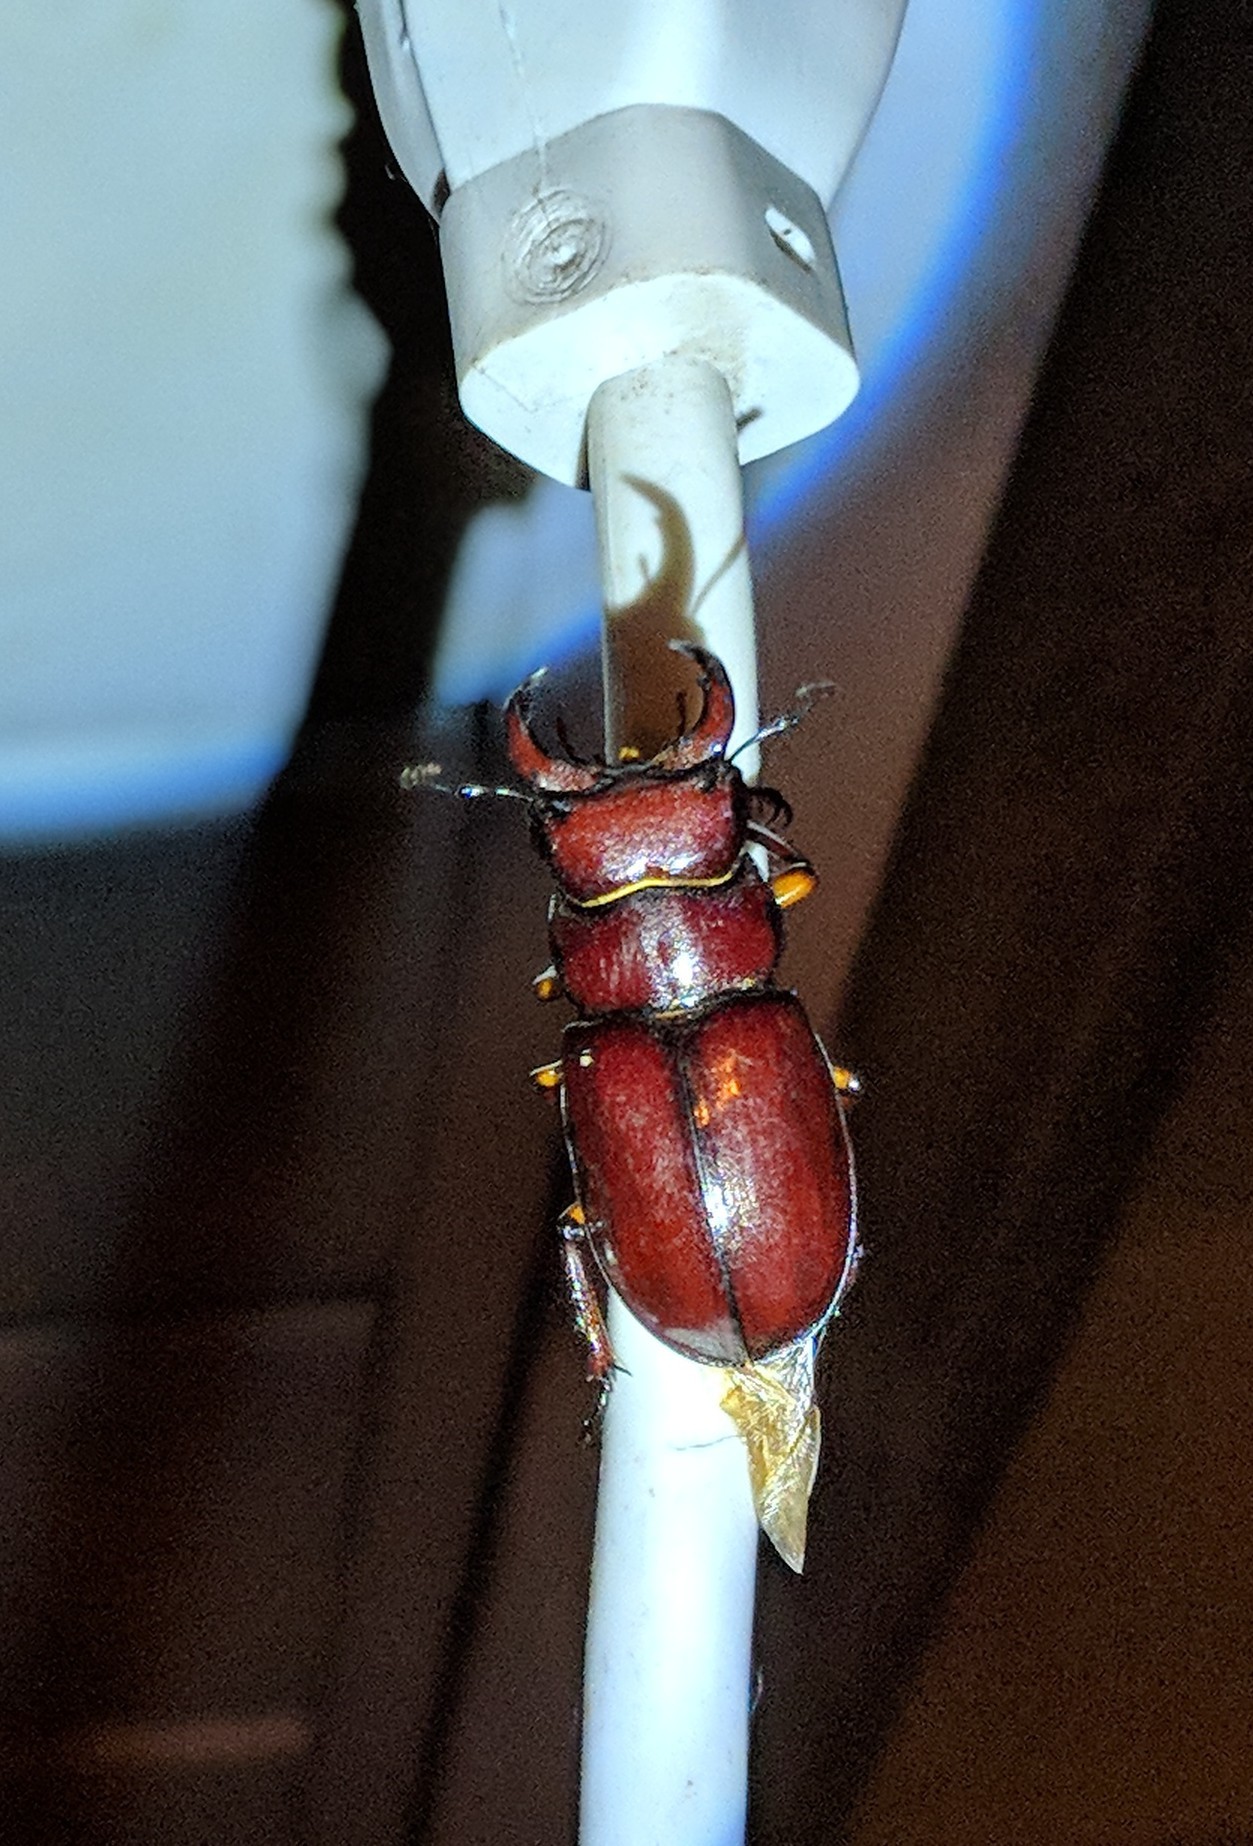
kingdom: Animalia
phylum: Arthropoda
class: Insecta
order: Coleoptera
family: Lucanidae
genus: Lucanus
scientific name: Lucanus capreolus
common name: Stag beetle
